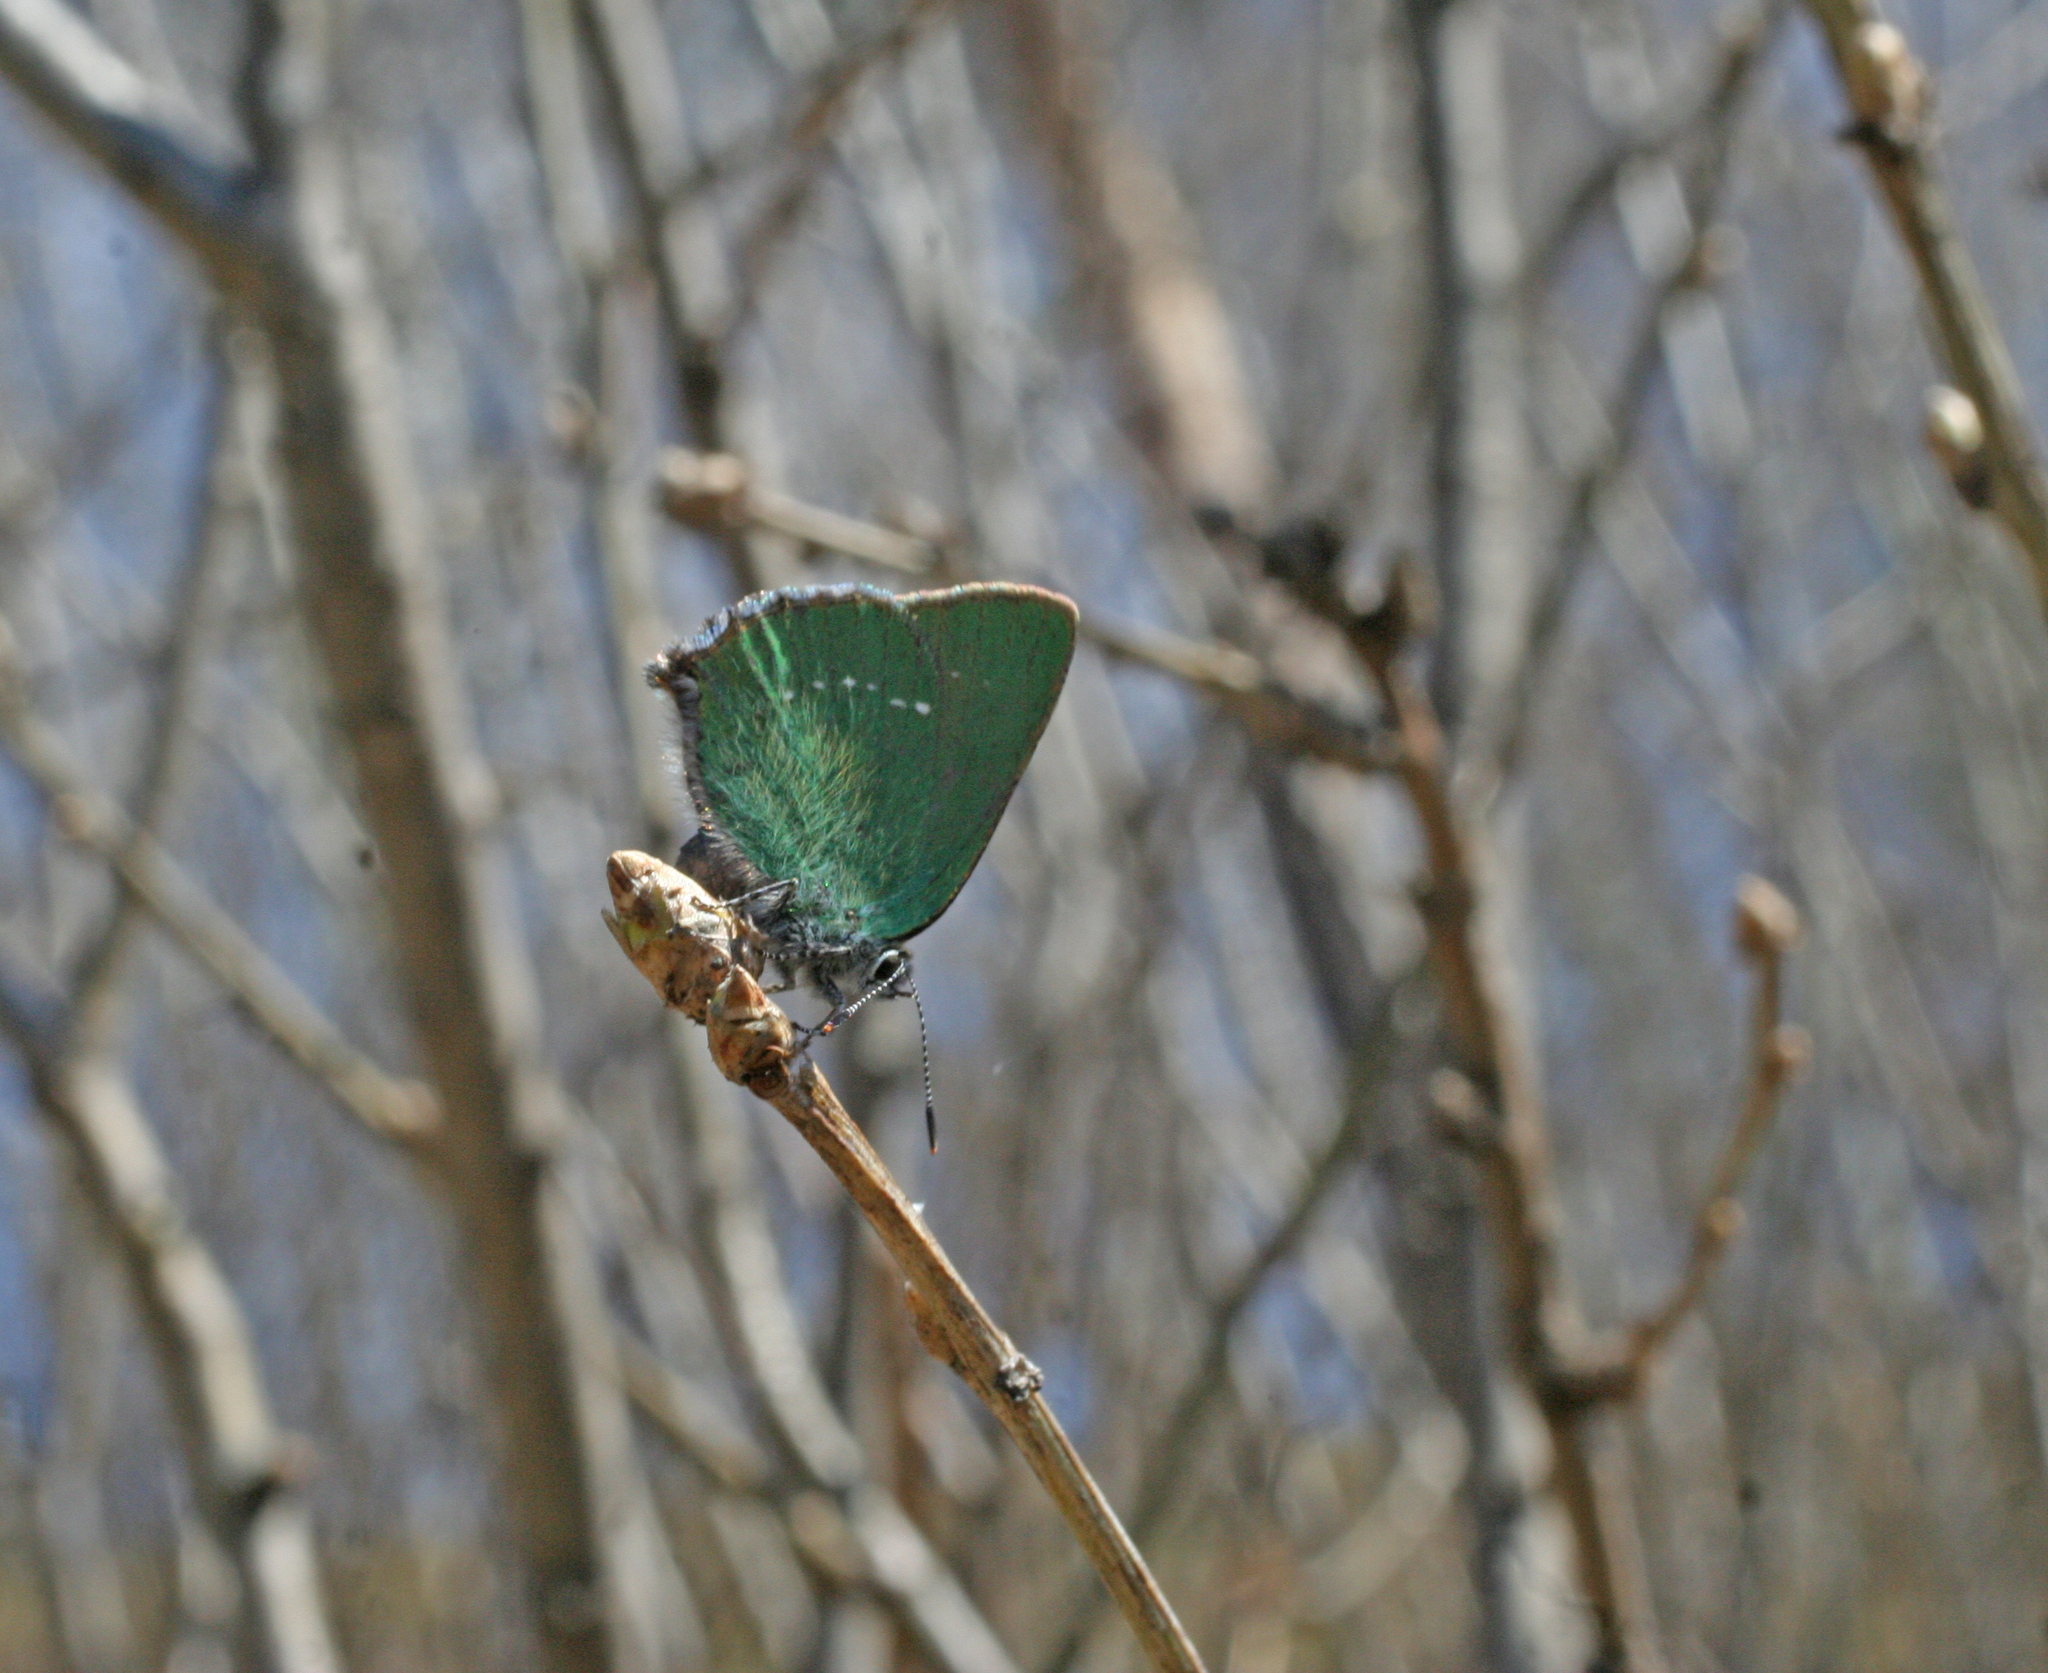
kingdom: Animalia
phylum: Arthropoda
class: Insecta
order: Lepidoptera
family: Lycaenidae
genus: Callophrys
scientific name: Callophrys rubi
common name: Green hairstreak
